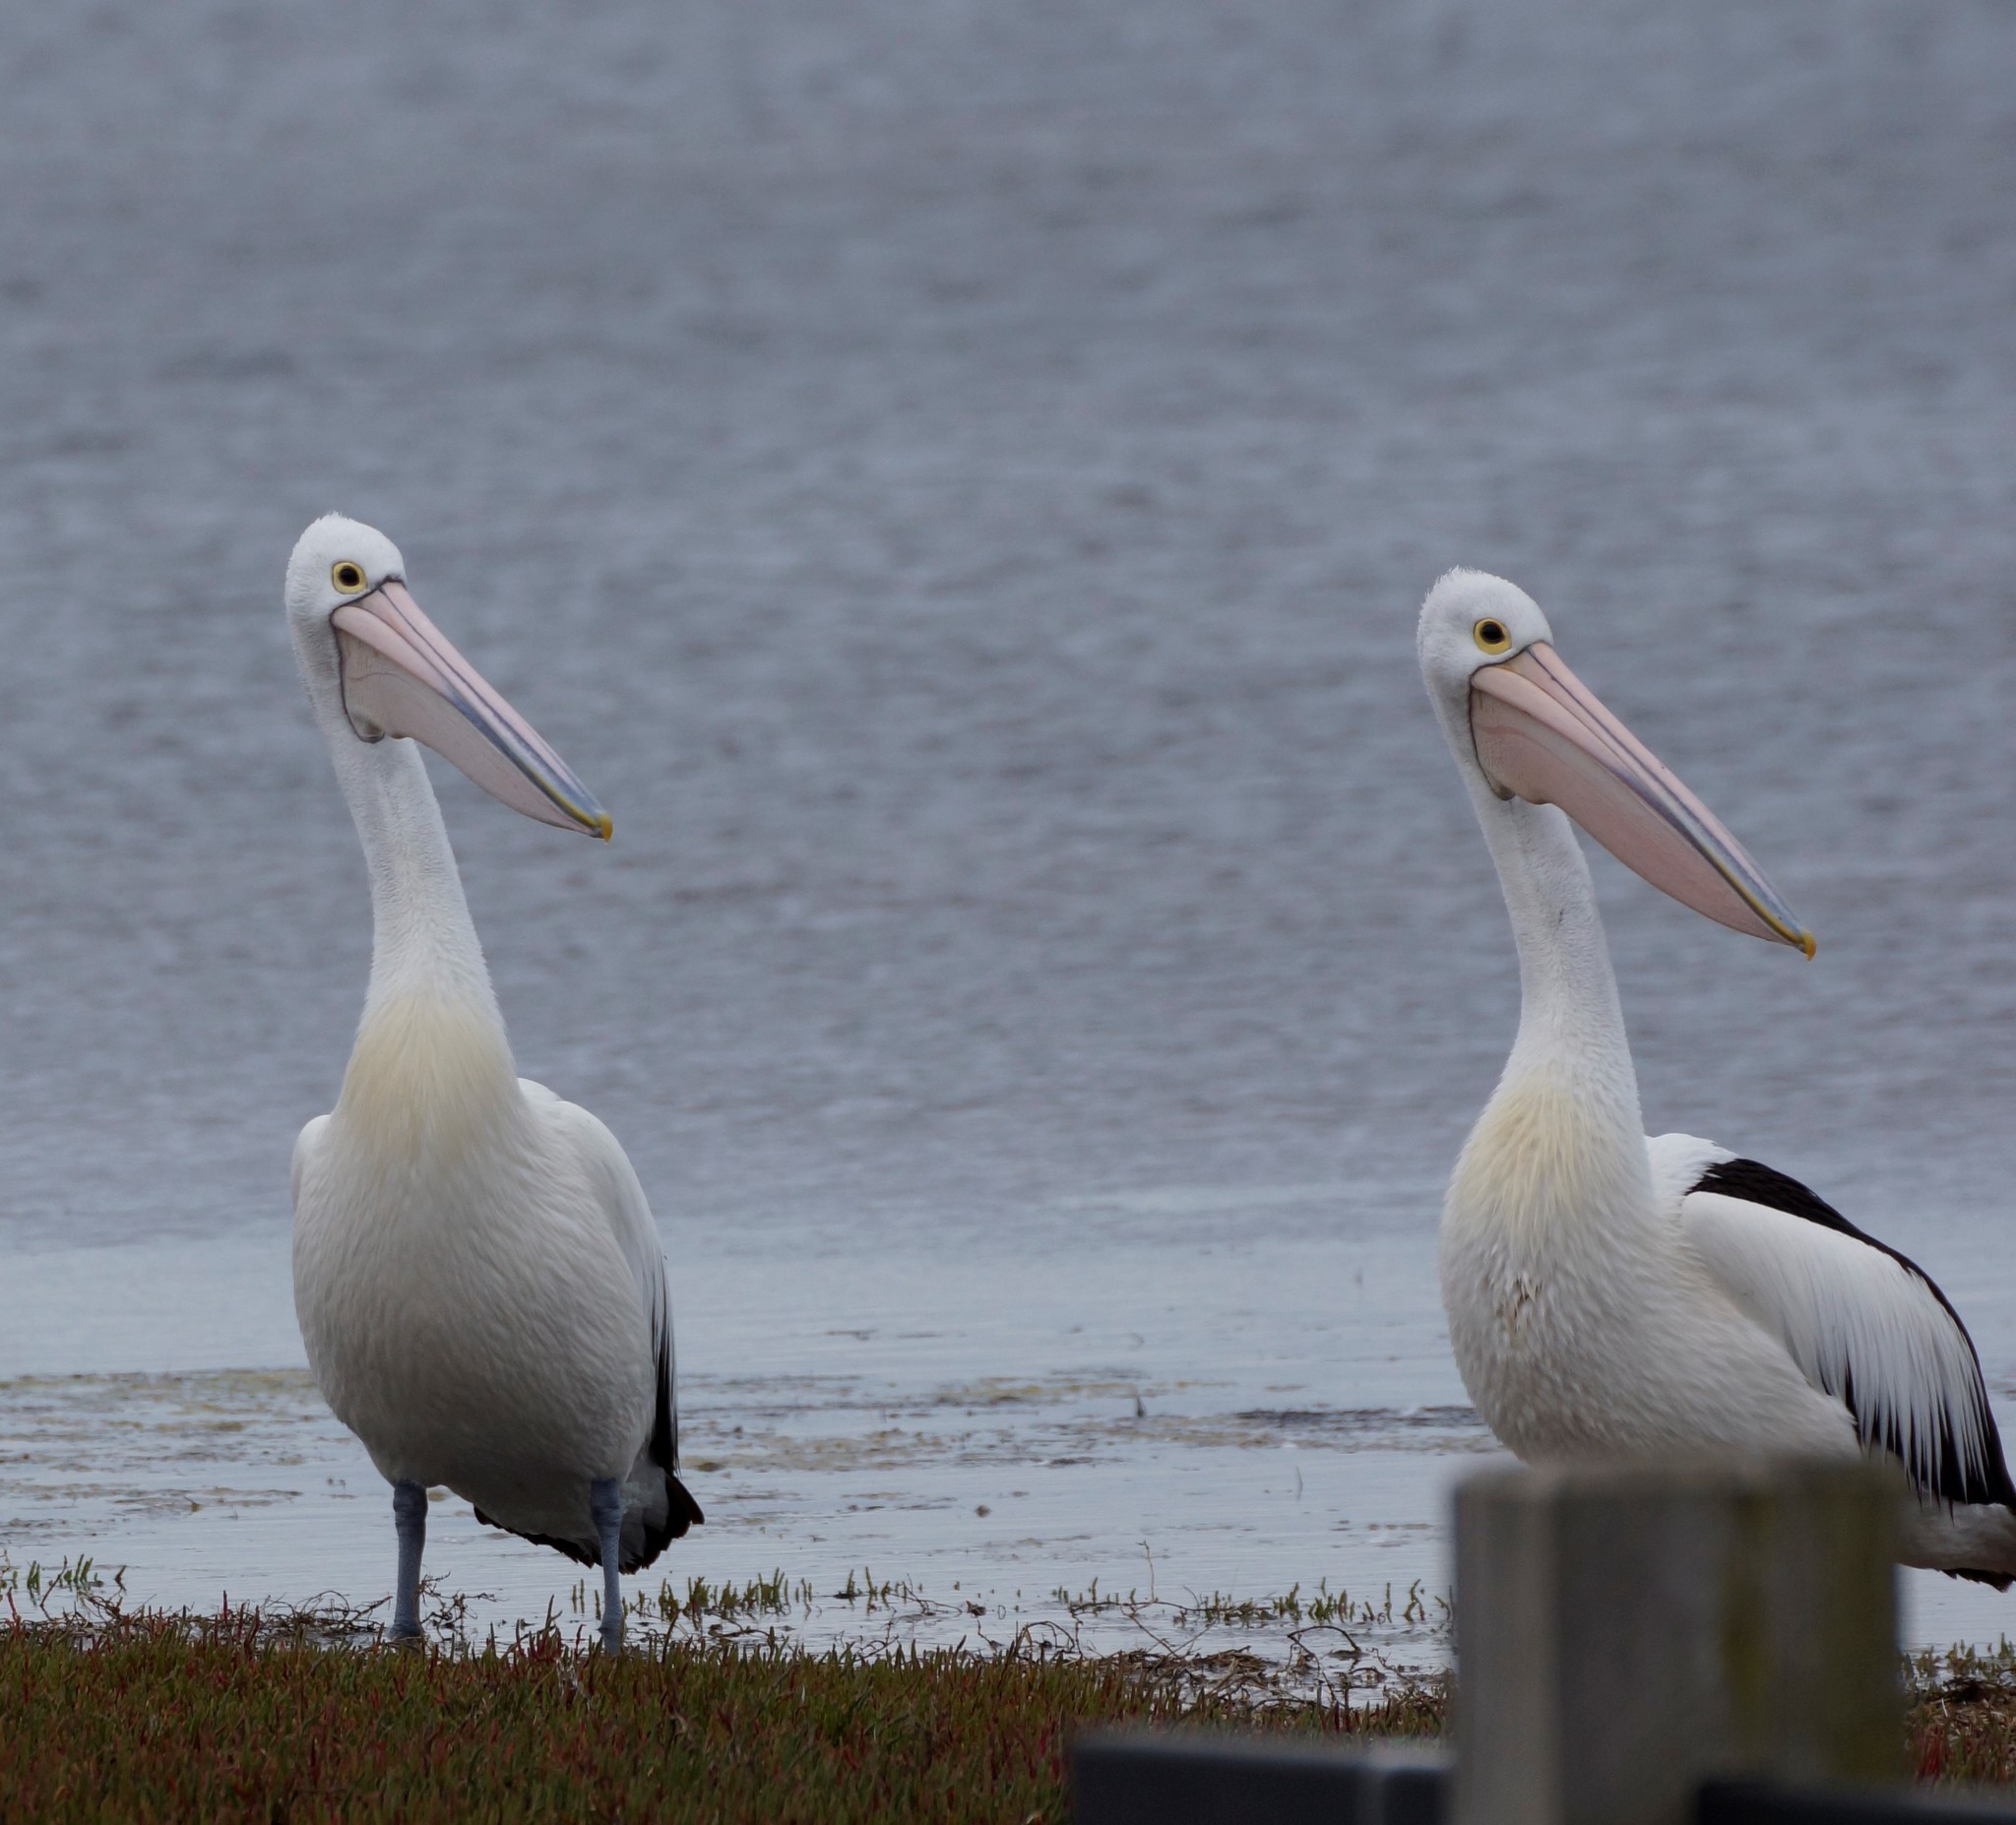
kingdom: Animalia
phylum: Chordata
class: Aves
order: Pelecaniformes
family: Pelecanidae
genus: Pelecanus
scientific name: Pelecanus conspicillatus
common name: Australian pelican
